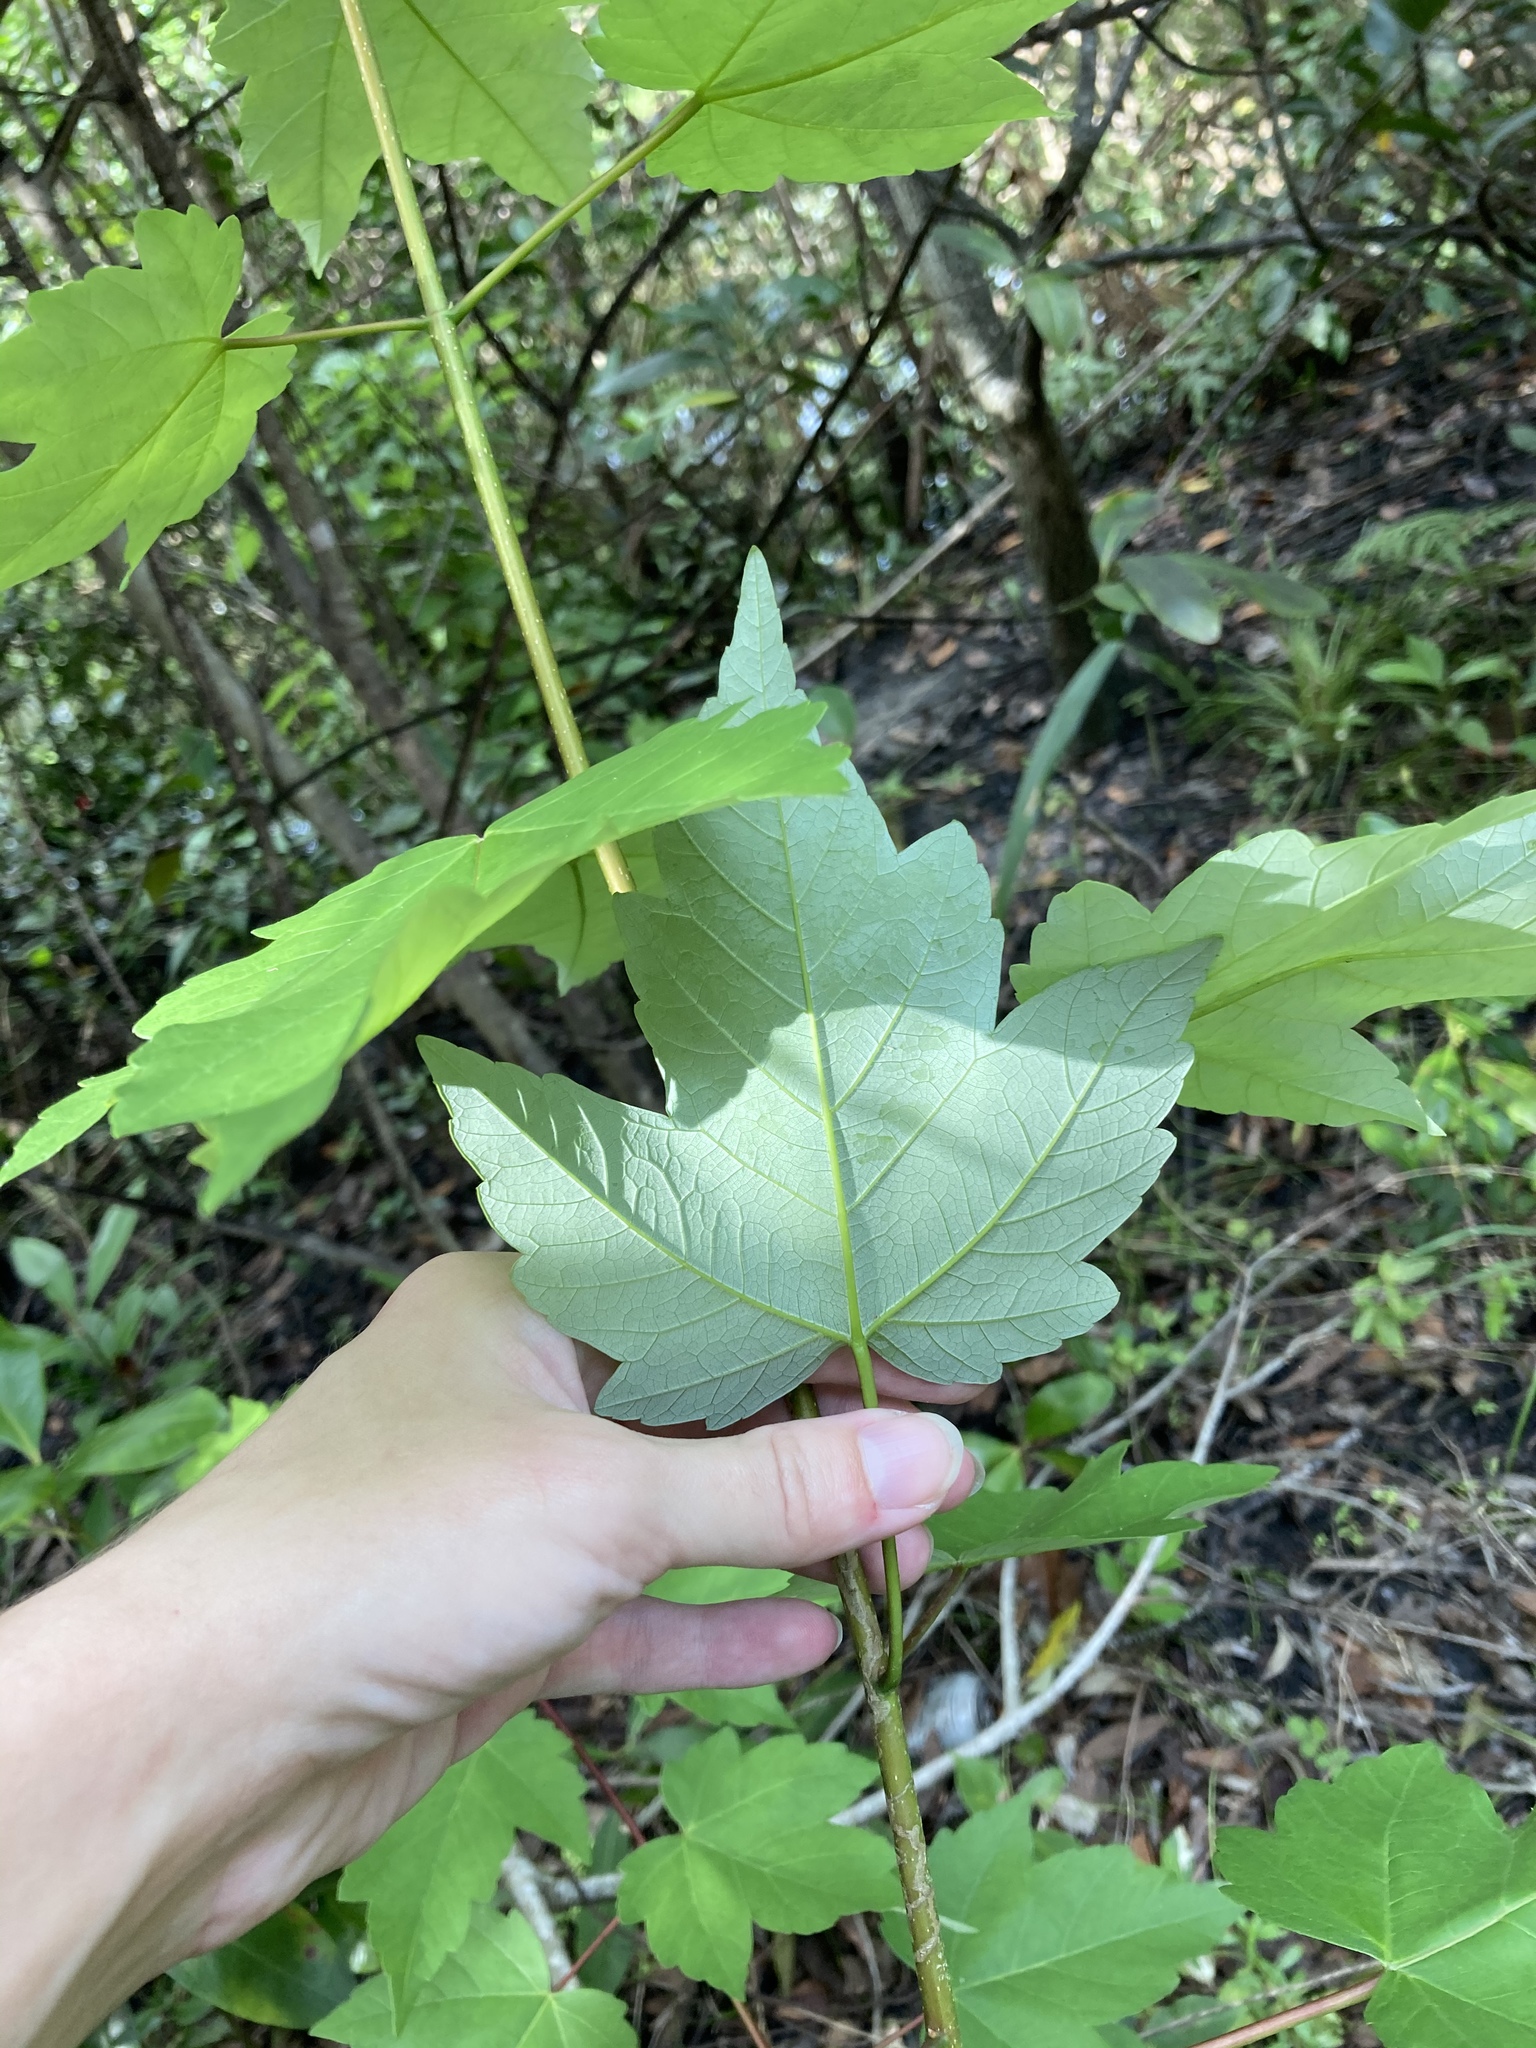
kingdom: Plantae
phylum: Tracheophyta
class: Magnoliopsida
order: Sapindales
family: Sapindaceae
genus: Acer
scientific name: Acer rubrum
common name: Red maple
